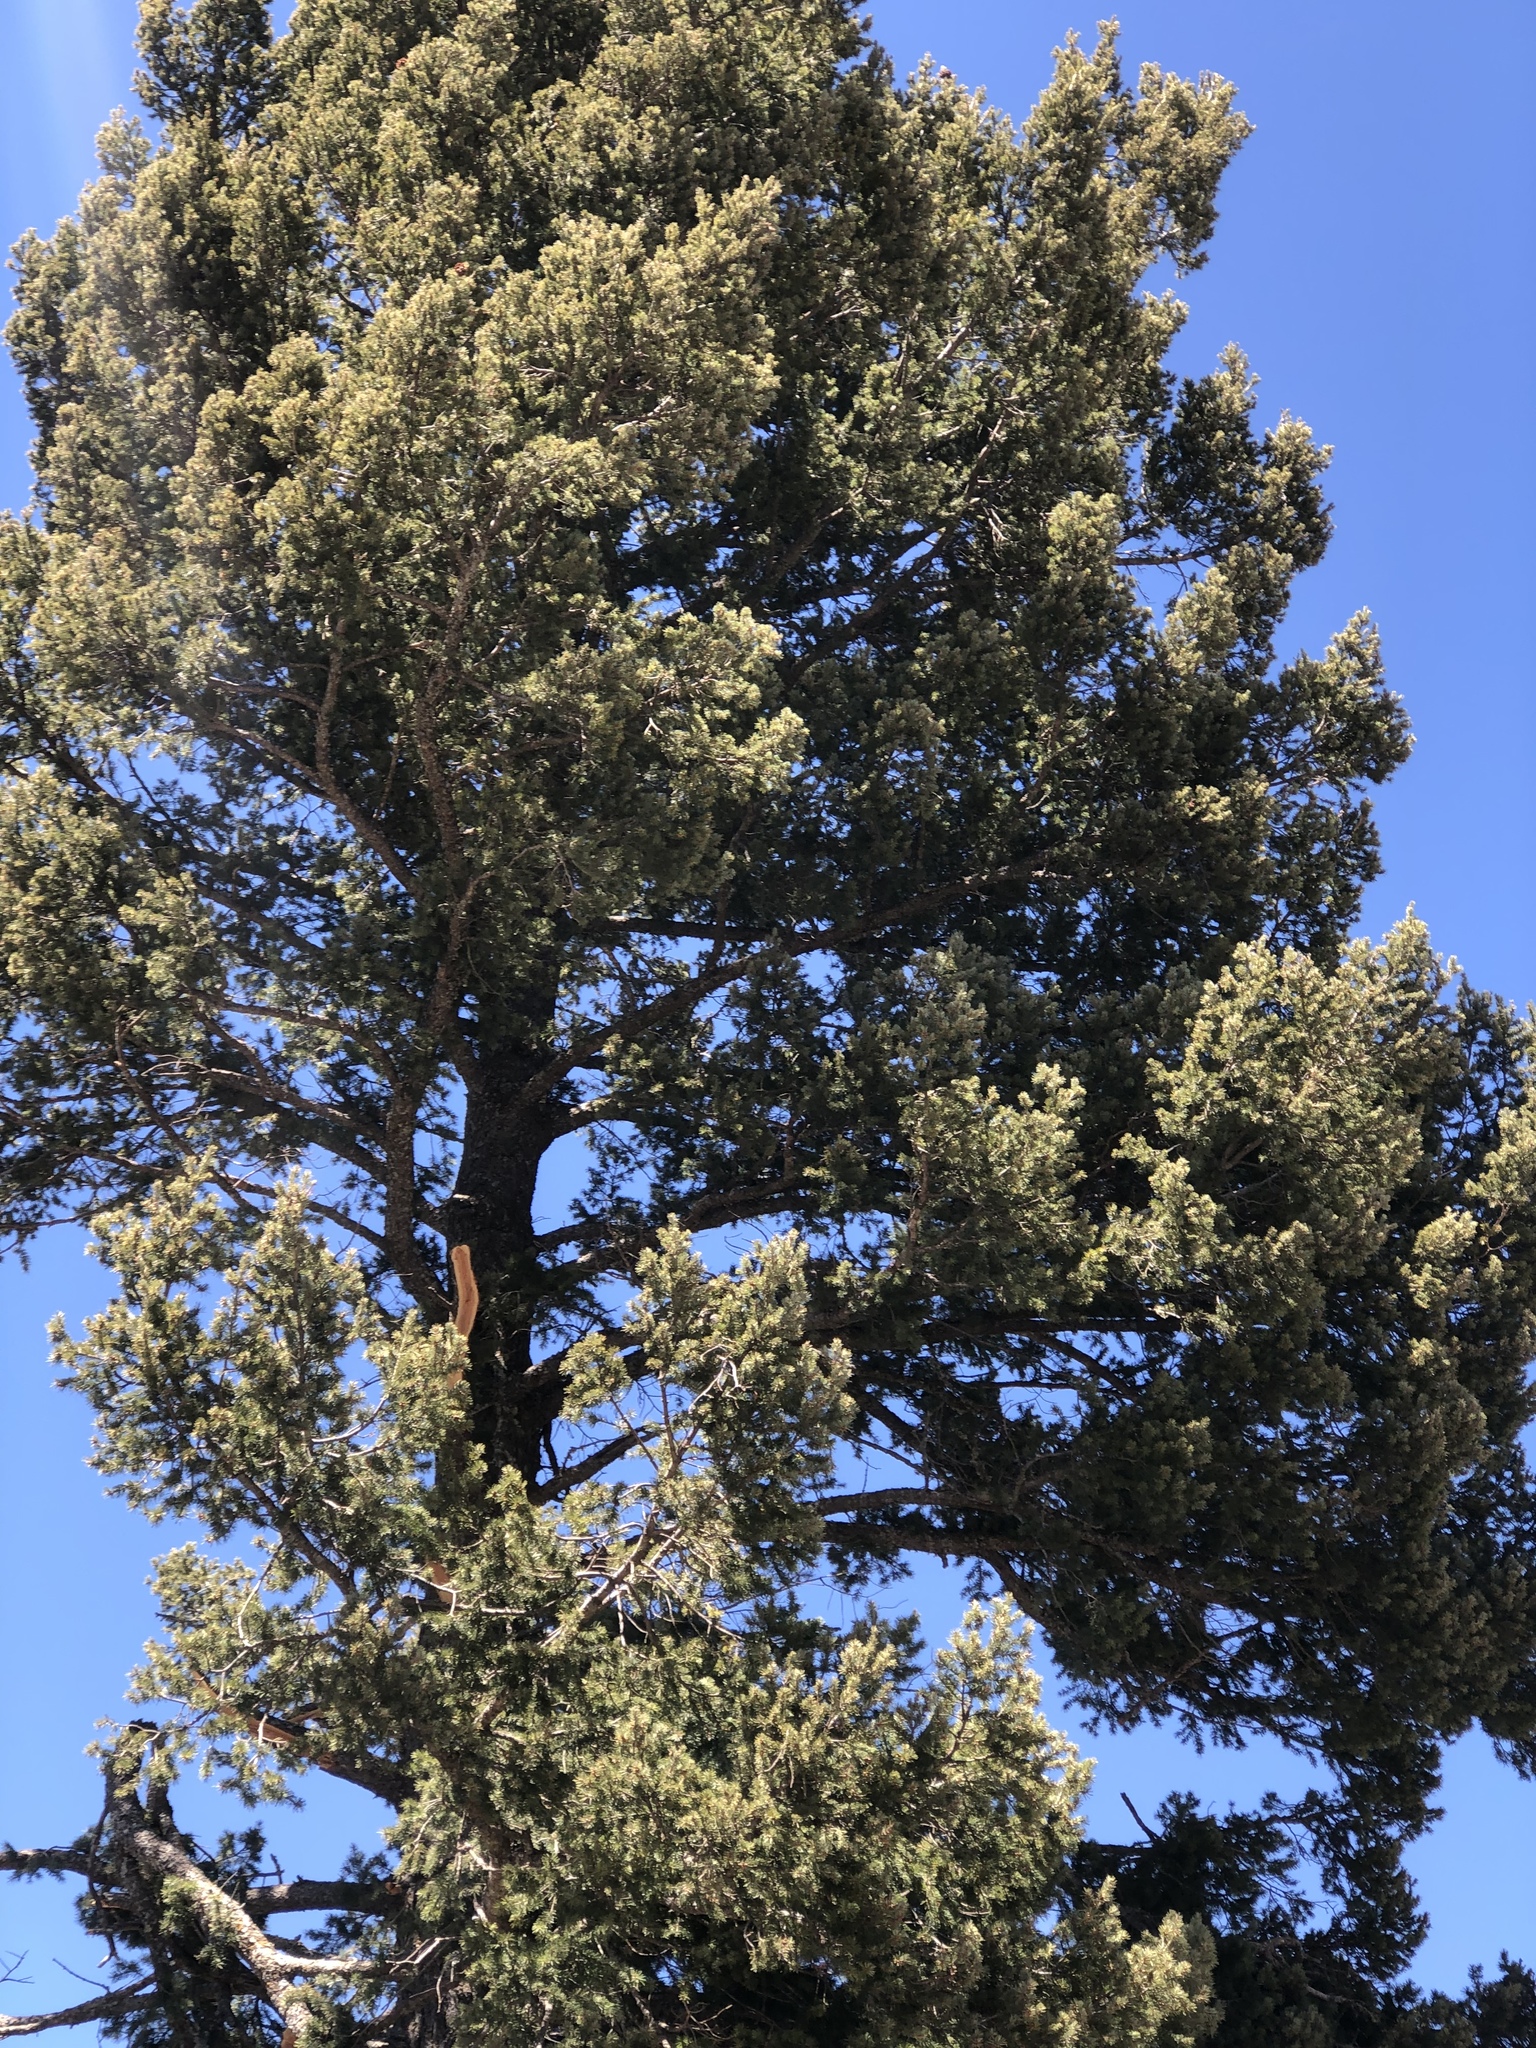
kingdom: Plantae
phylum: Tracheophyta
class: Pinopsida
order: Pinales
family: Pinaceae
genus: Pseudotsuga
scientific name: Pseudotsuga menziesii
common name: Douglas fir
